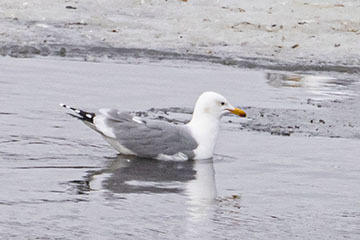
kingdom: Animalia
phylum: Chordata
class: Aves
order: Charadriiformes
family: Laridae
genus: Larus
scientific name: Larus californicus
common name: California gull
